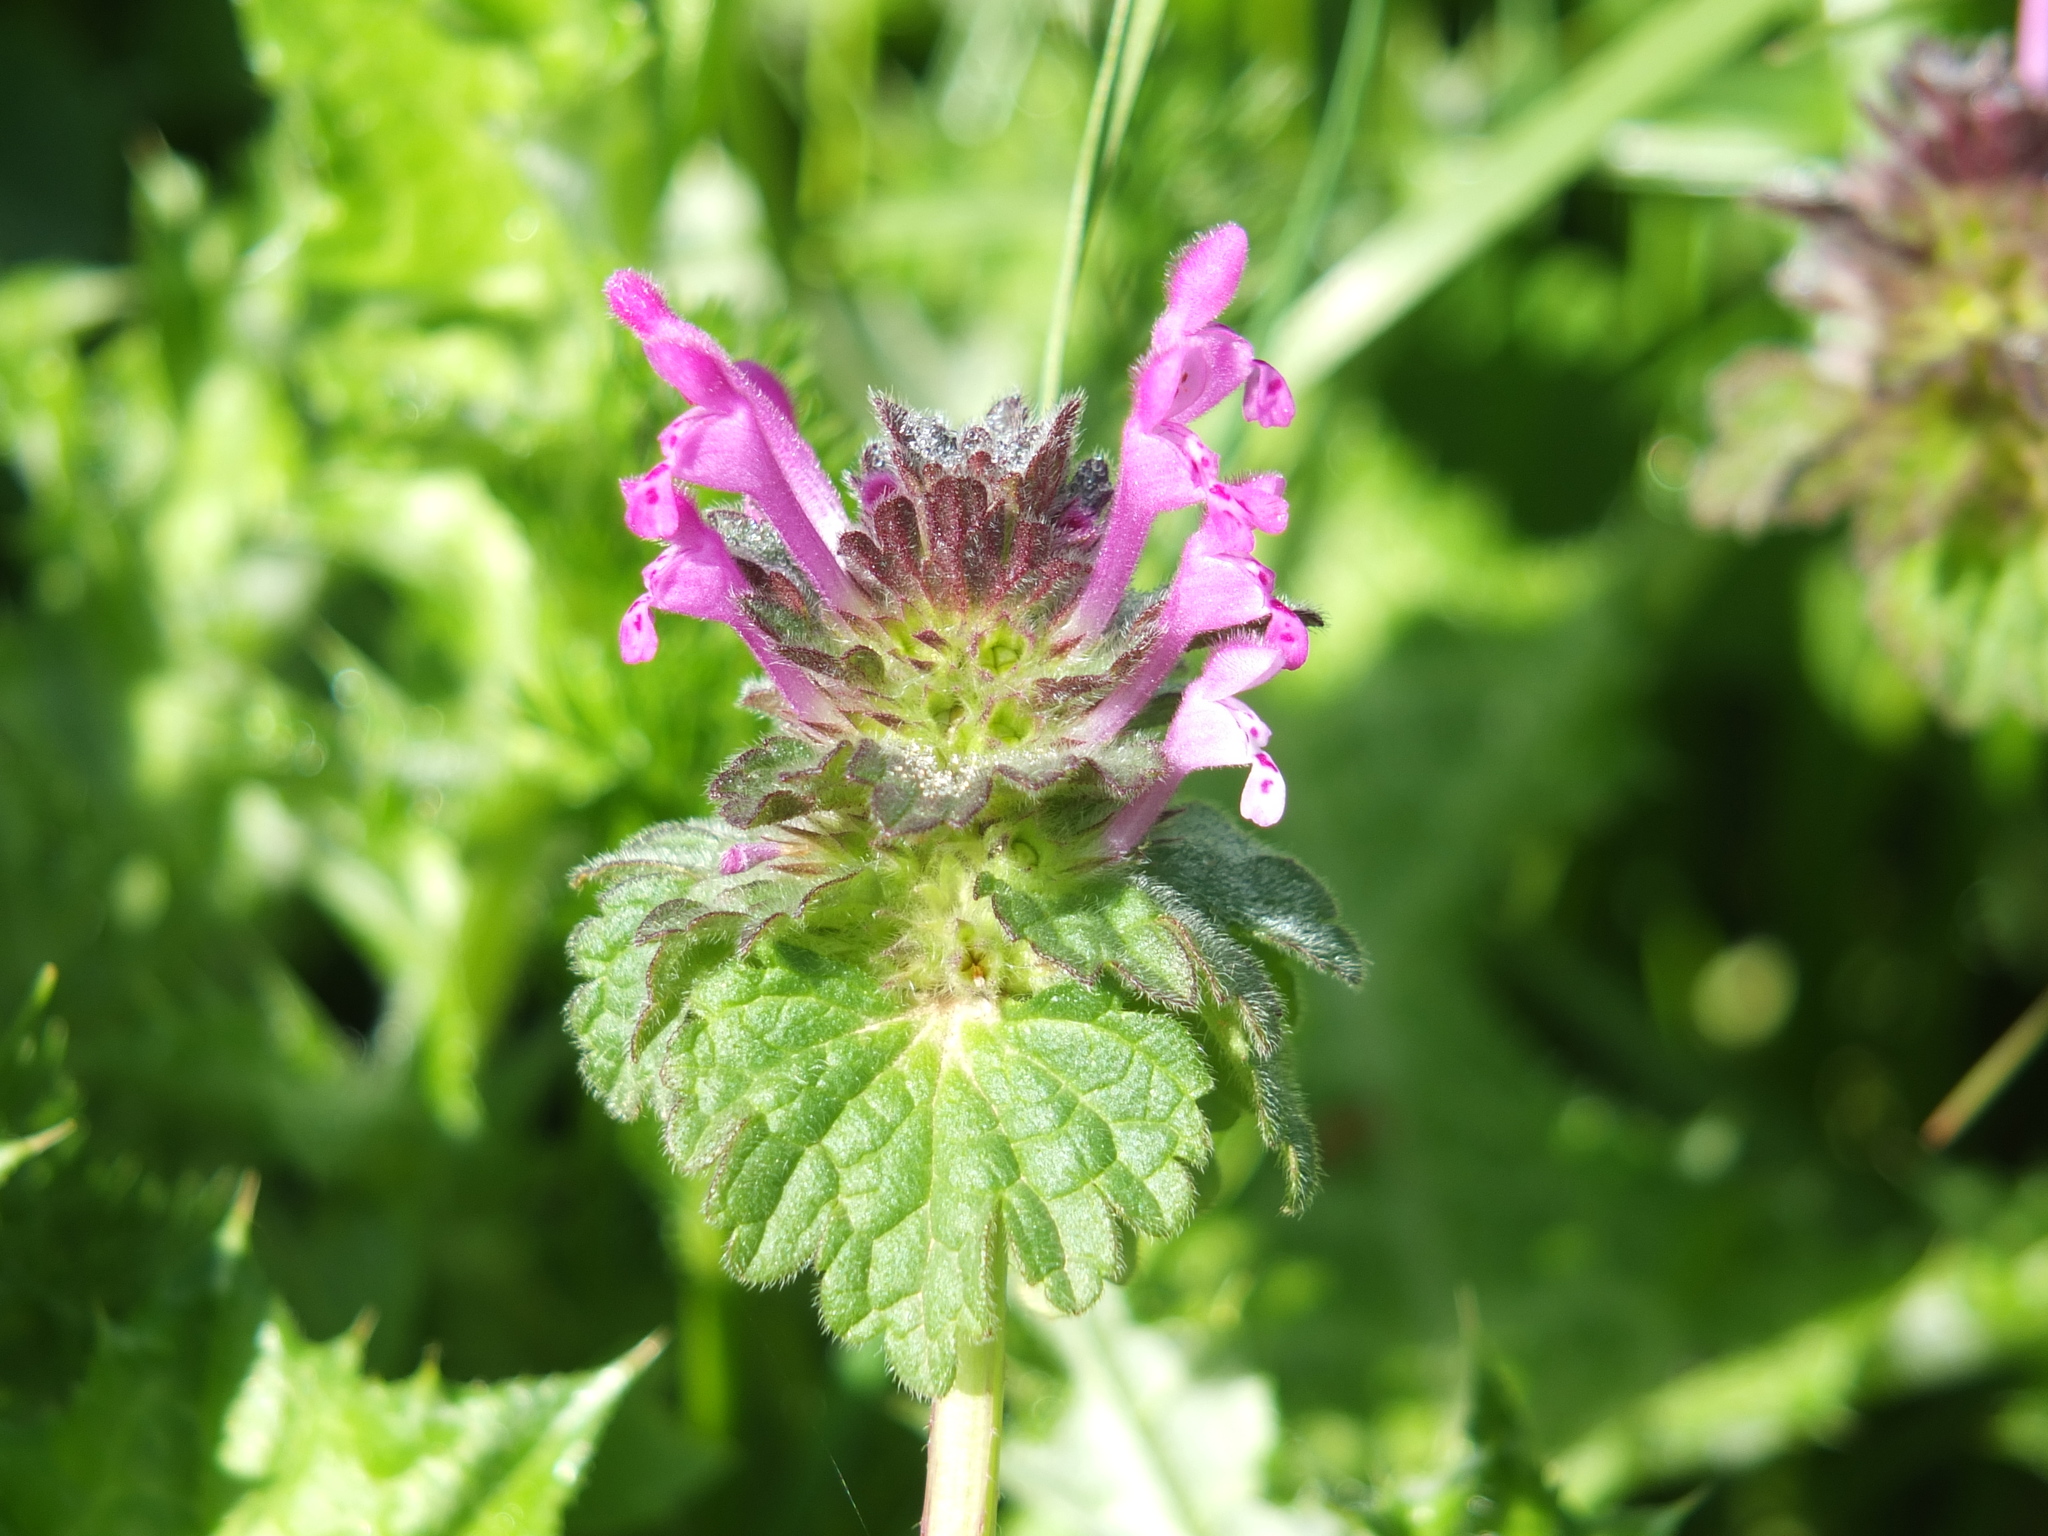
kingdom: Plantae
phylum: Tracheophyta
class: Magnoliopsida
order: Lamiales
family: Lamiaceae
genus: Lamium
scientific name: Lamium amplexicaule
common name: Henbit dead-nettle
